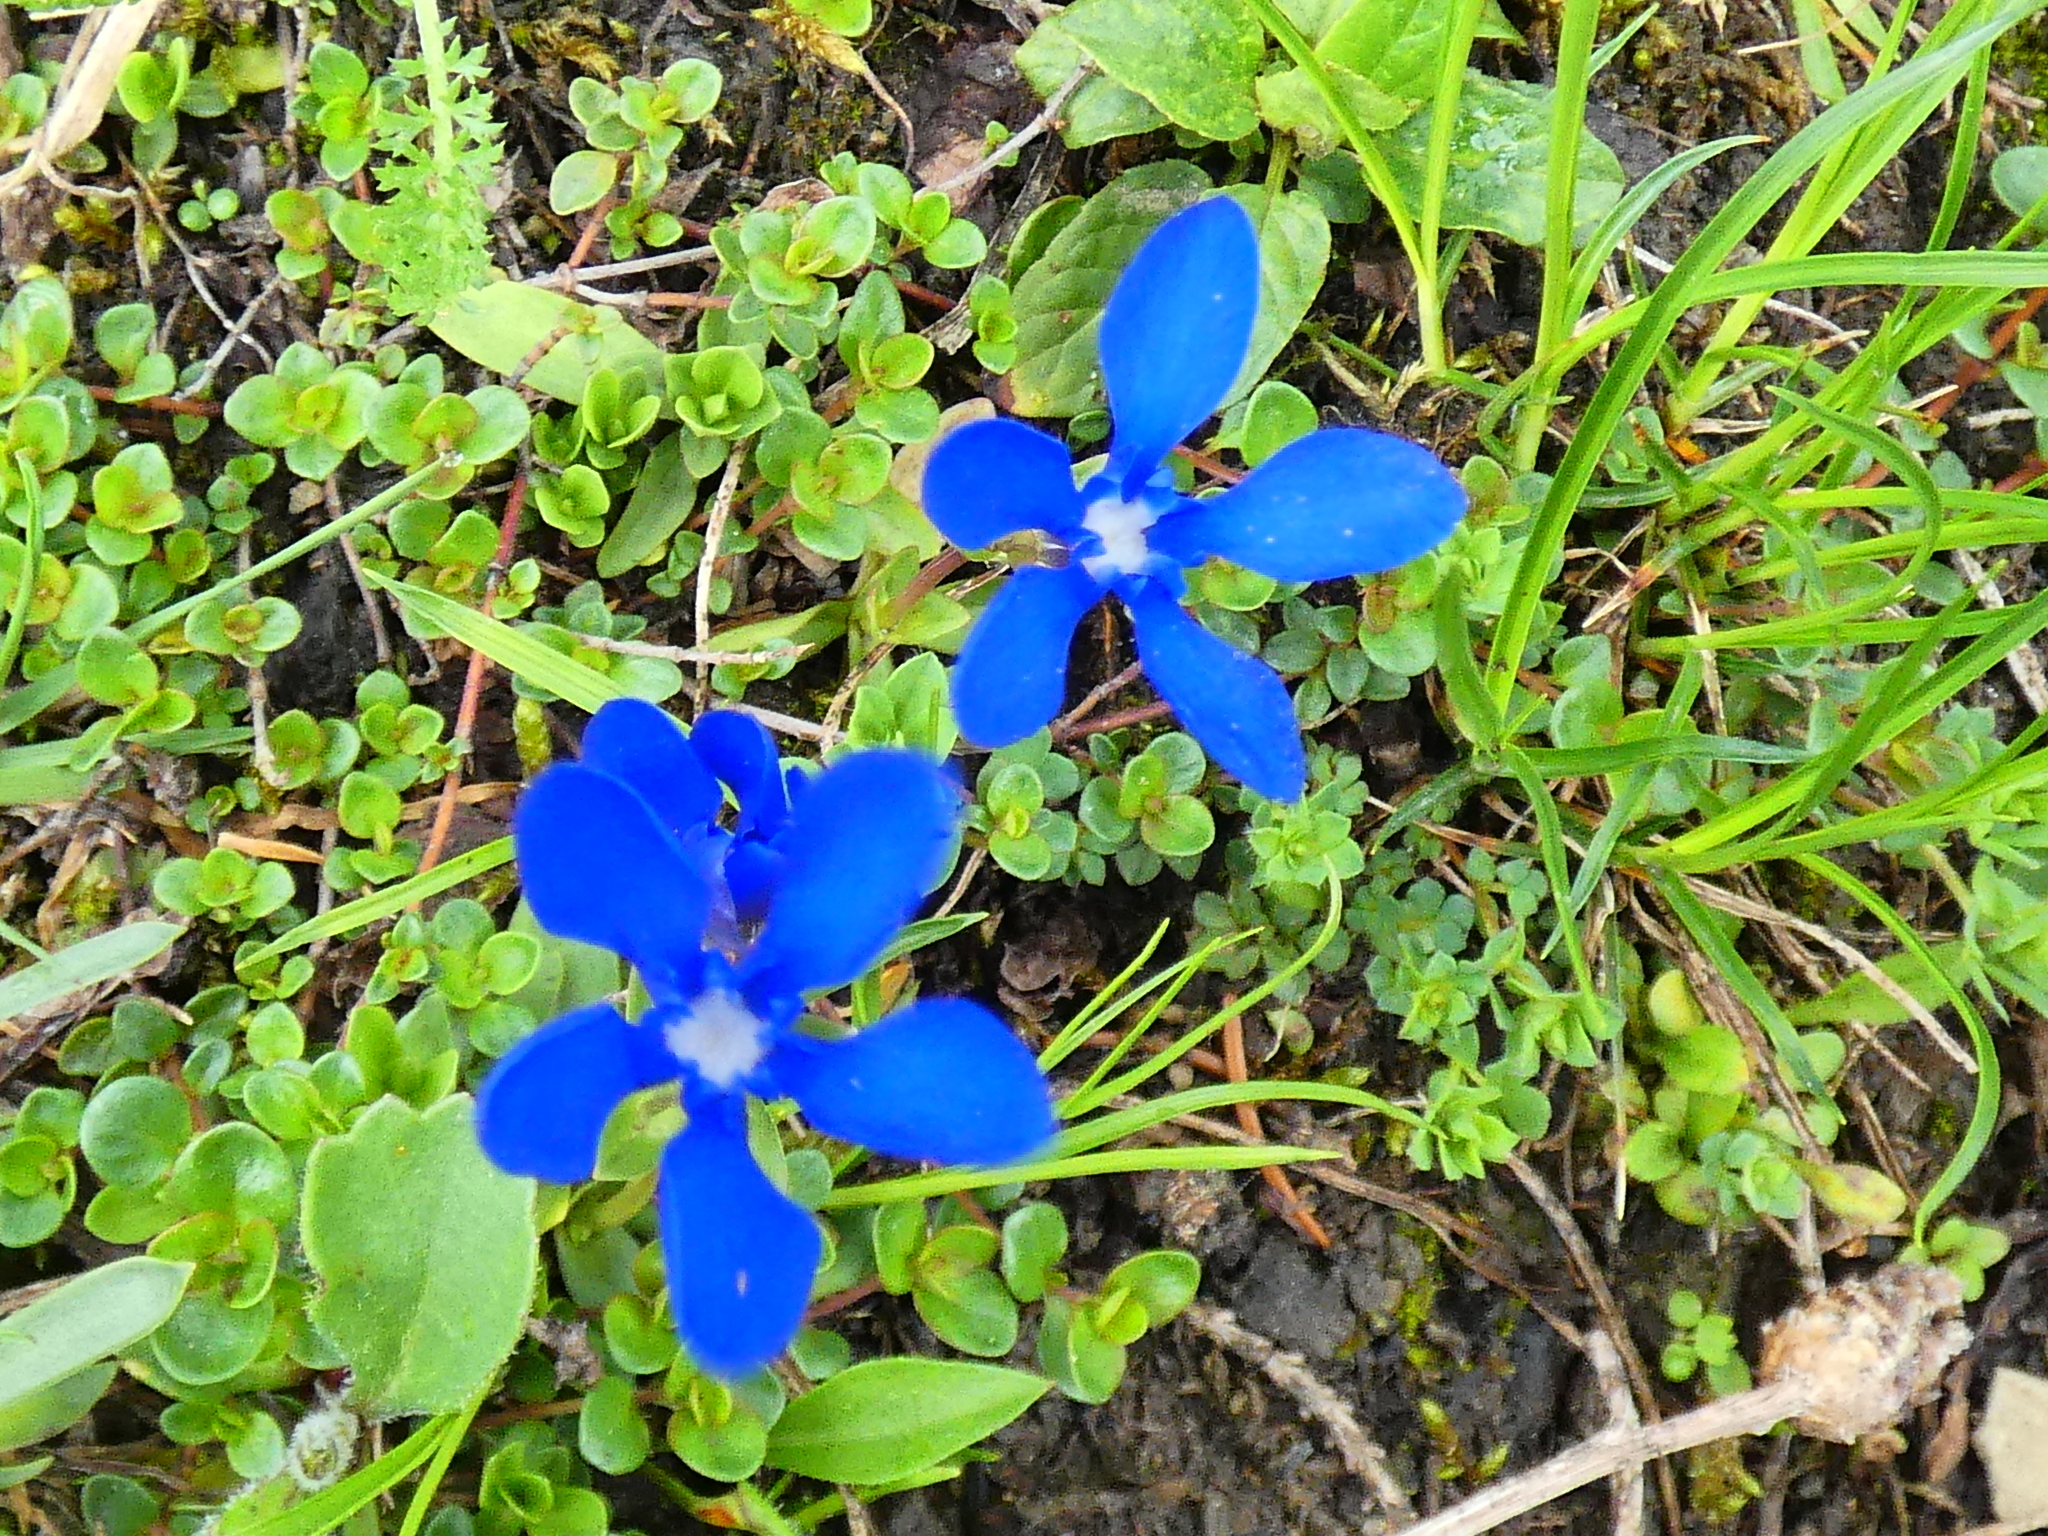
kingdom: Plantae
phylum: Tracheophyta
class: Magnoliopsida
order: Gentianales
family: Gentianaceae
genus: Gentiana
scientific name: Gentiana verna
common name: Spring gentian
